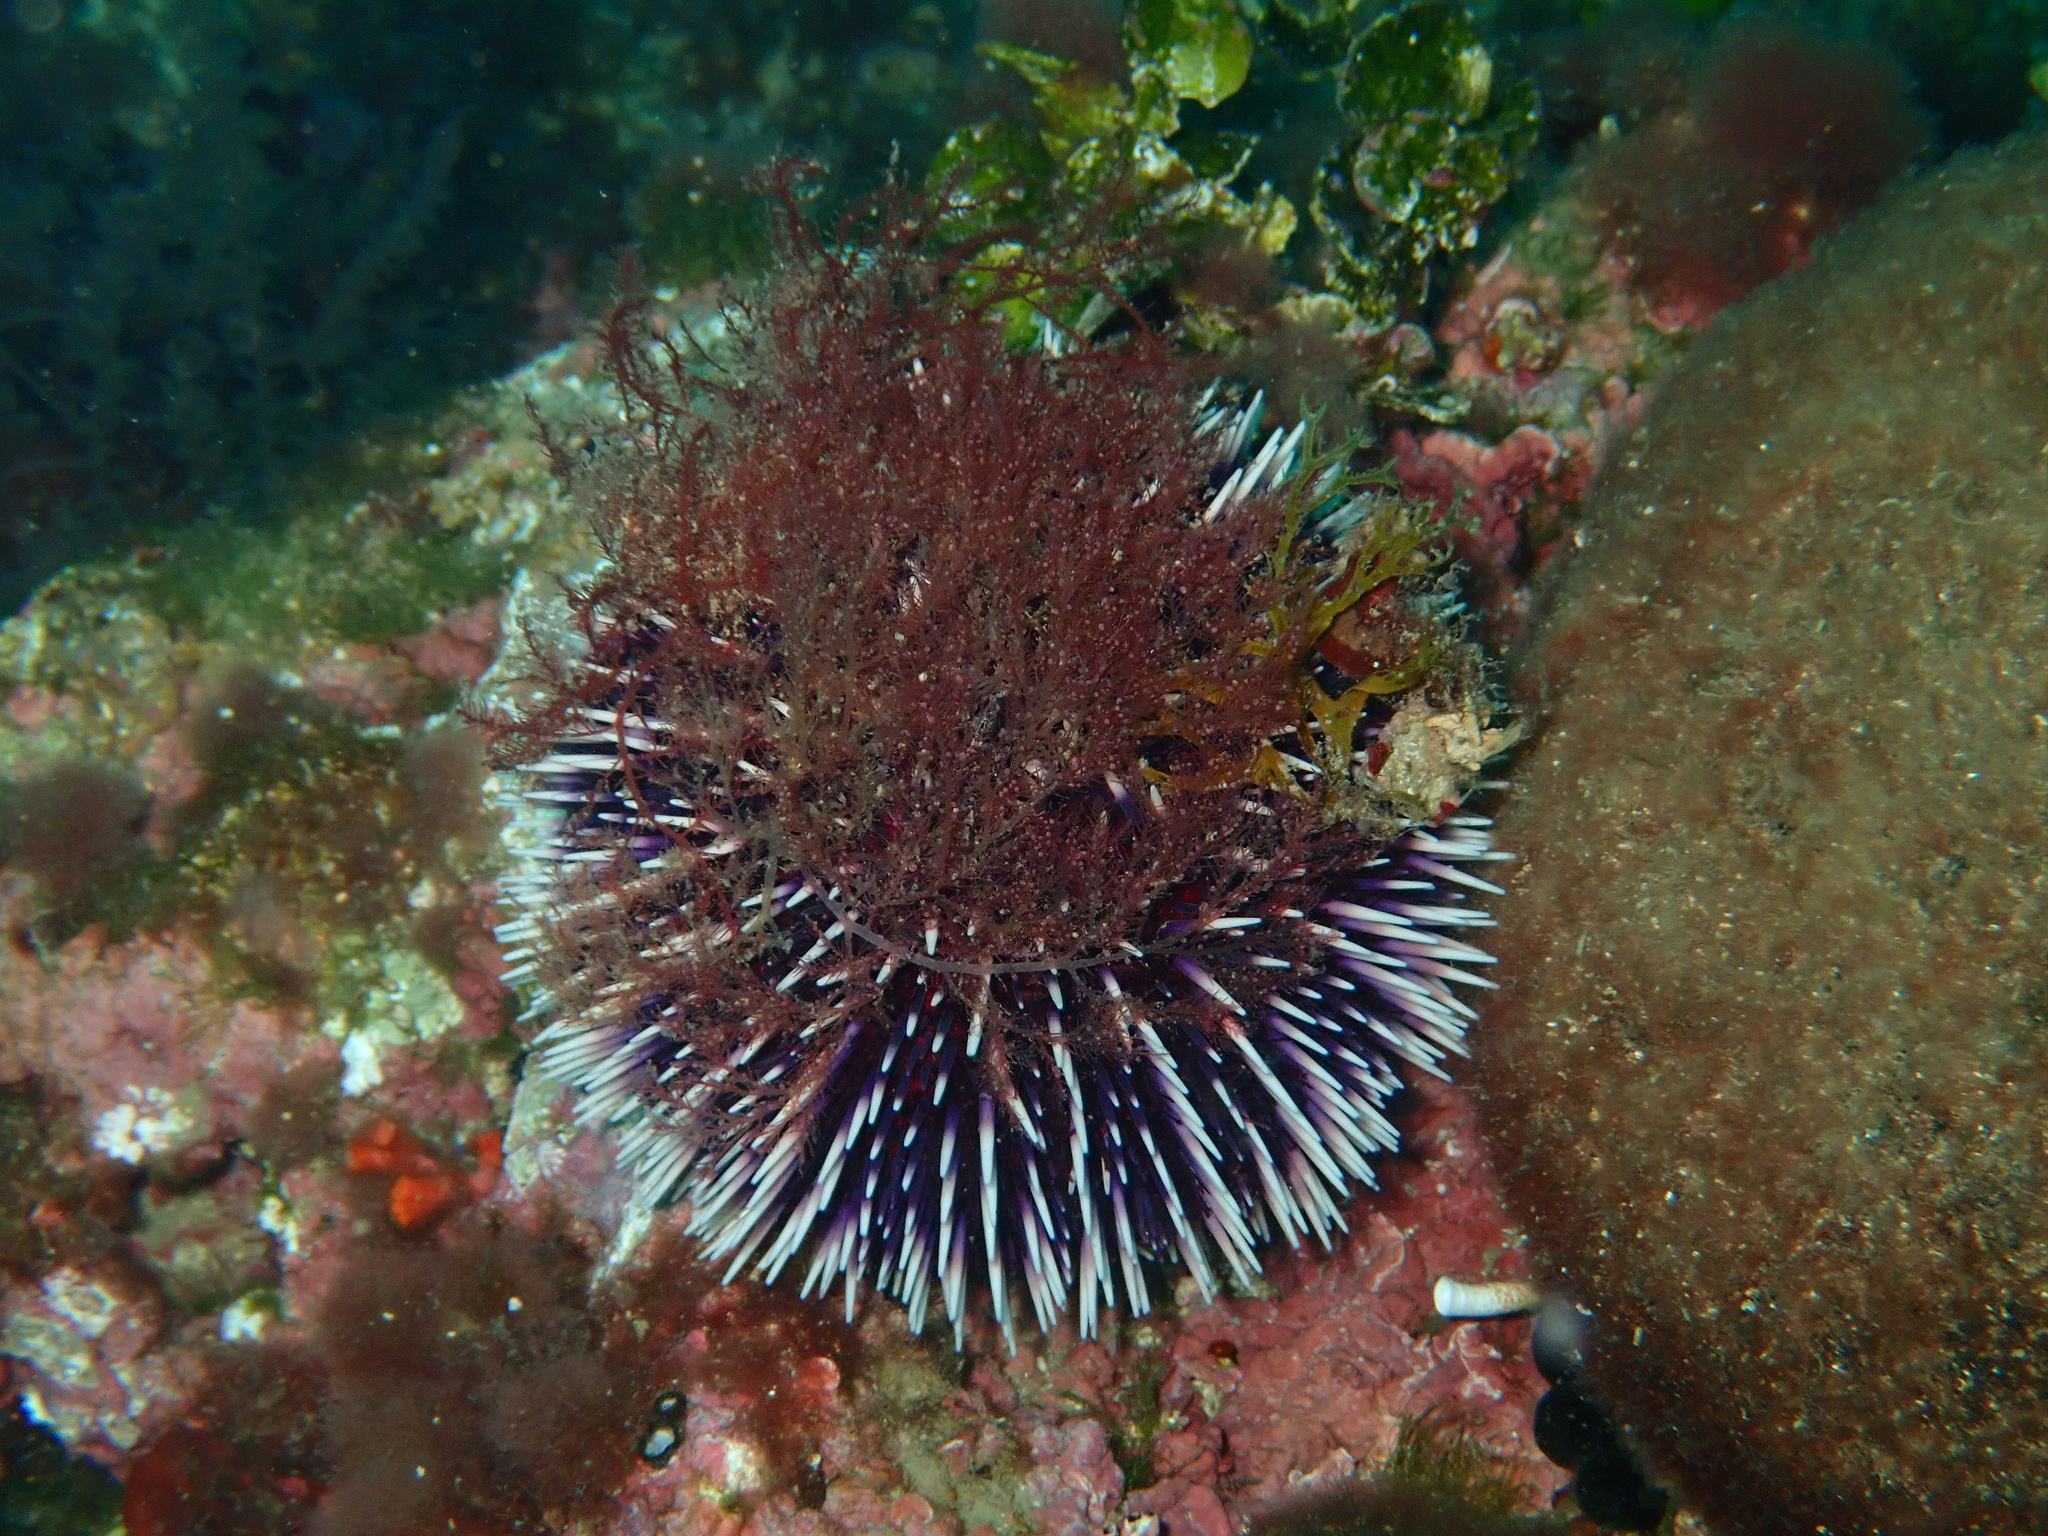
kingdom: Animalia
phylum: Echinodermata
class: Echinoidea
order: Camarodonta
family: Toxopneustidae
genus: Sphaerechinus
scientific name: Sphaerechinus granularis
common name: Violet sea urchin
